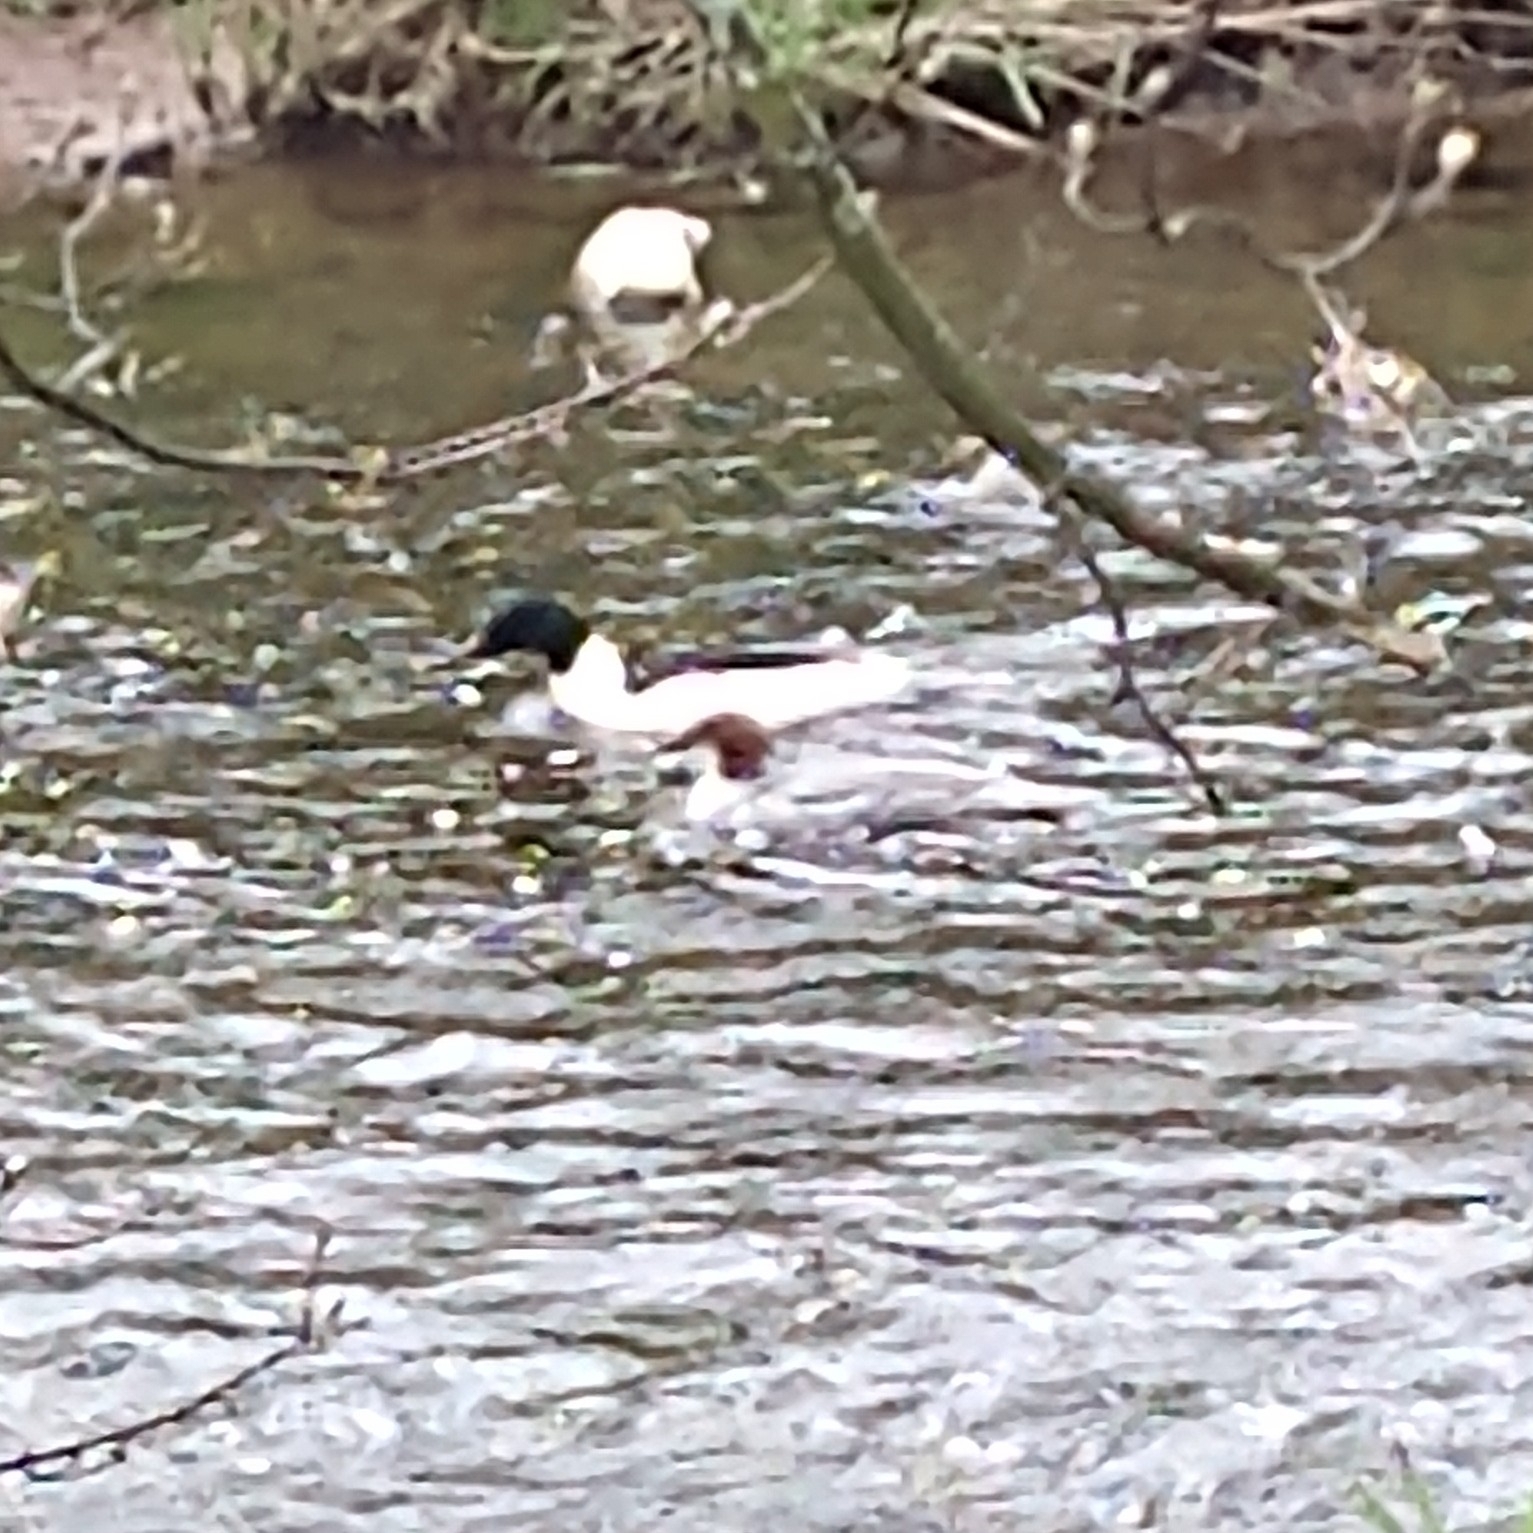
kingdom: Animalia
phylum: Chordata
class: Aves
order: Anseriformes
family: Anatidae
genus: Mergus
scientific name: Mergus merganser
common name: Common merganser
